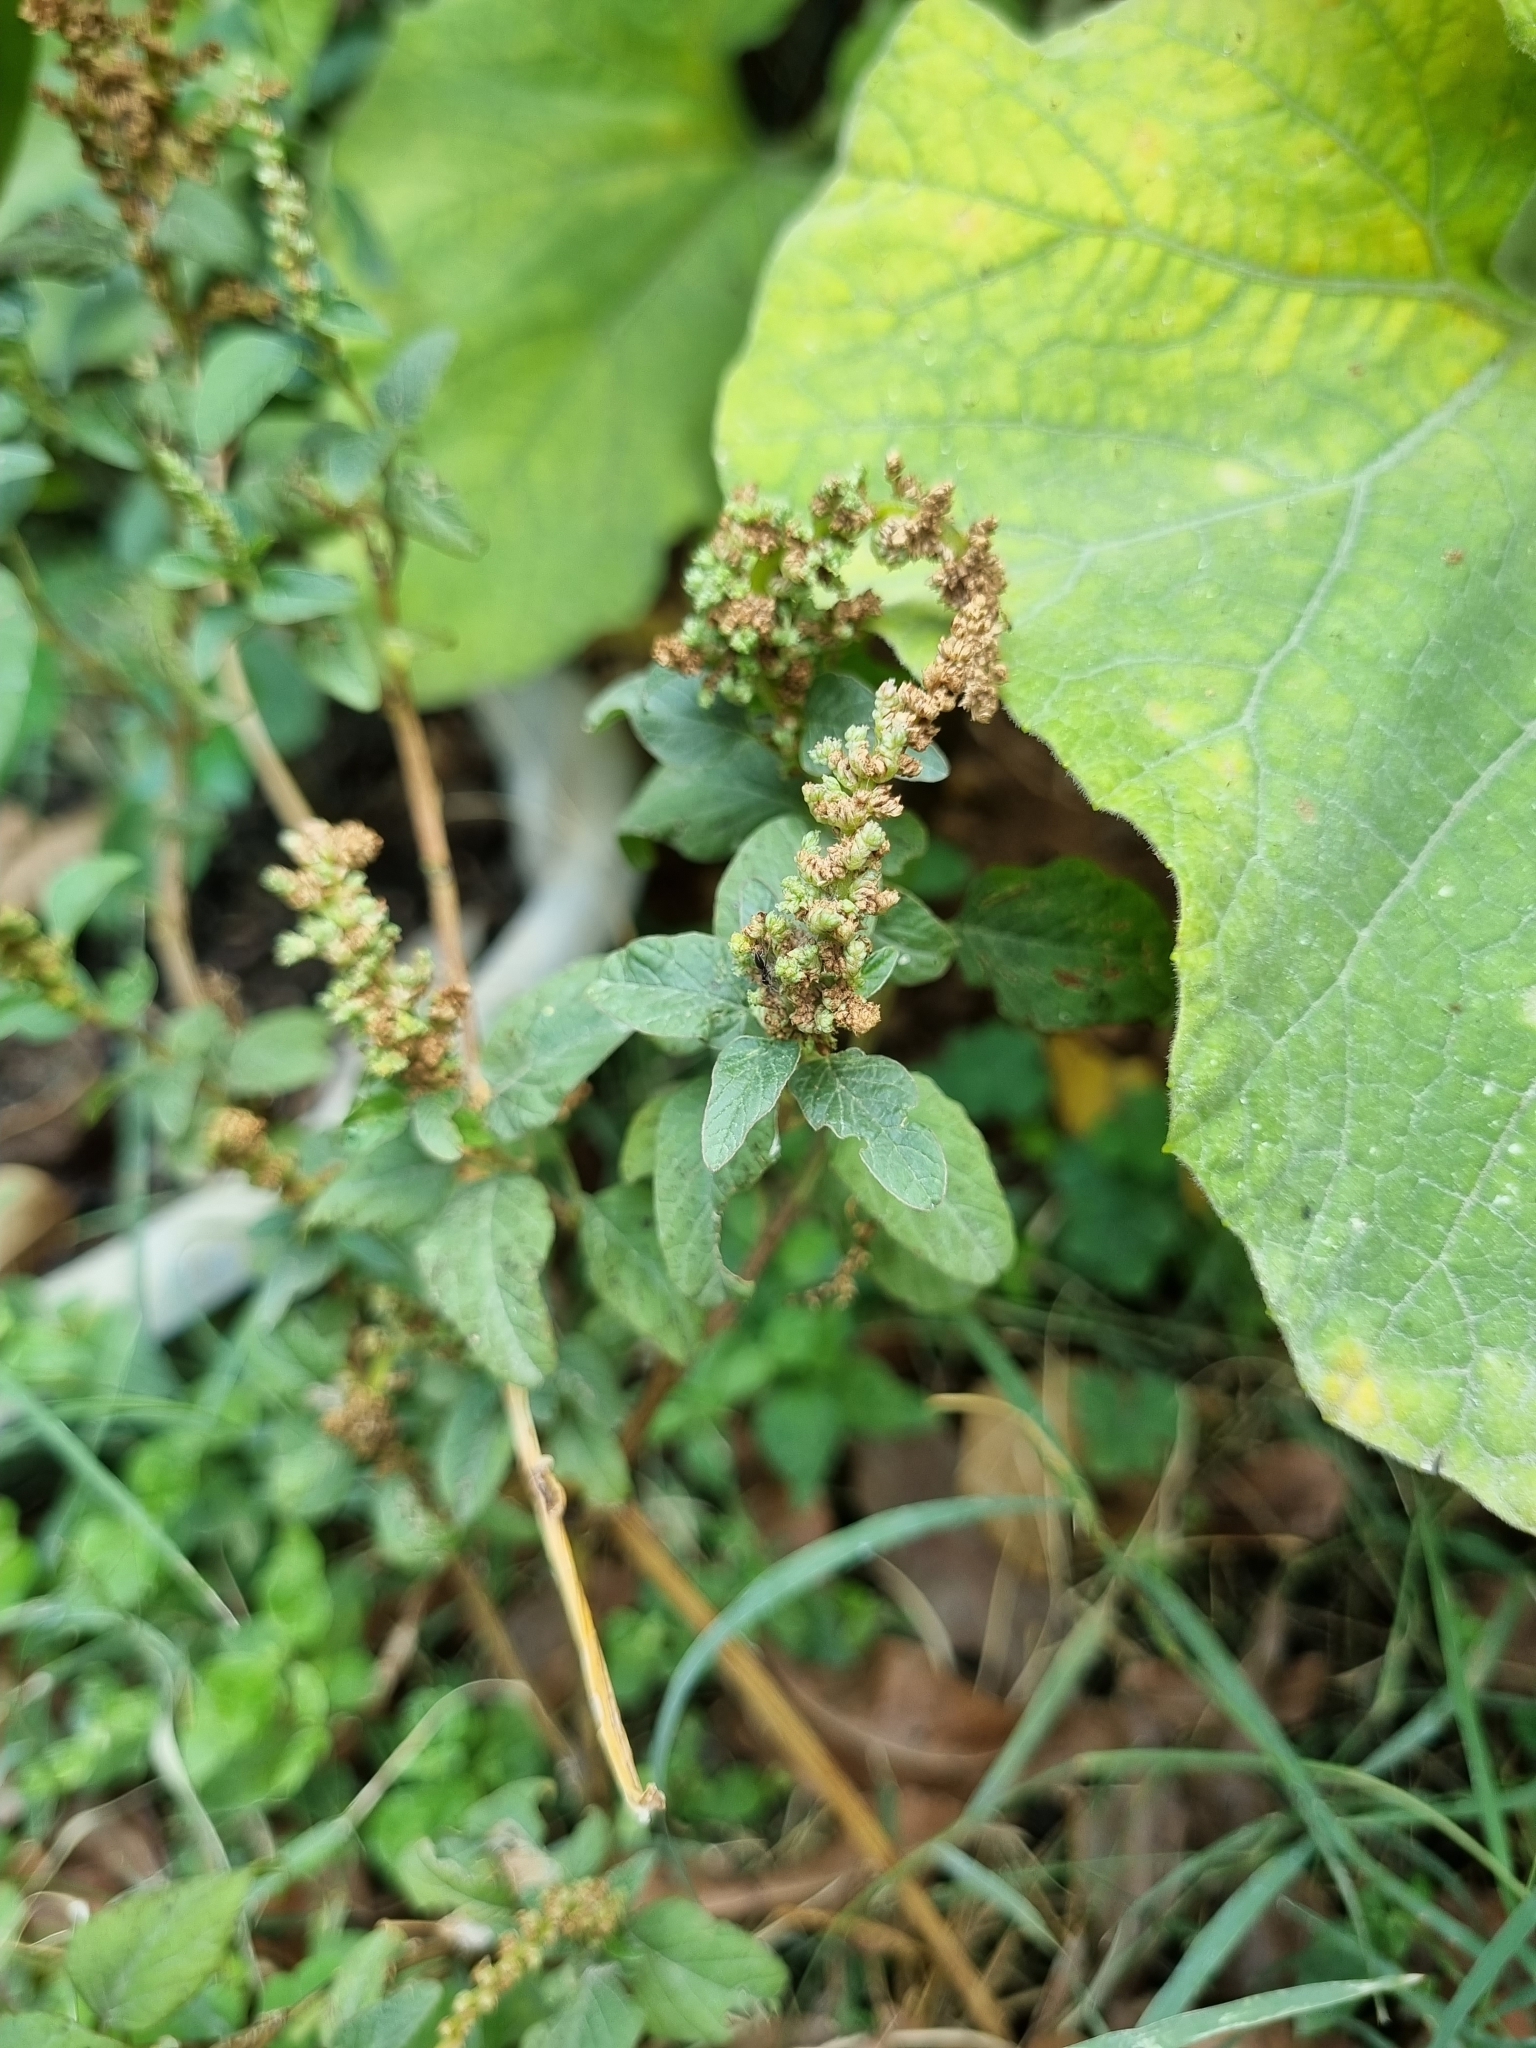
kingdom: Plantae
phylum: Tracheophyta
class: Magnoliopsida
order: Caryophyllales
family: Amaranthaceae
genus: Amaranthus
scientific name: Amaranthus viridis
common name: Slender amaranth
